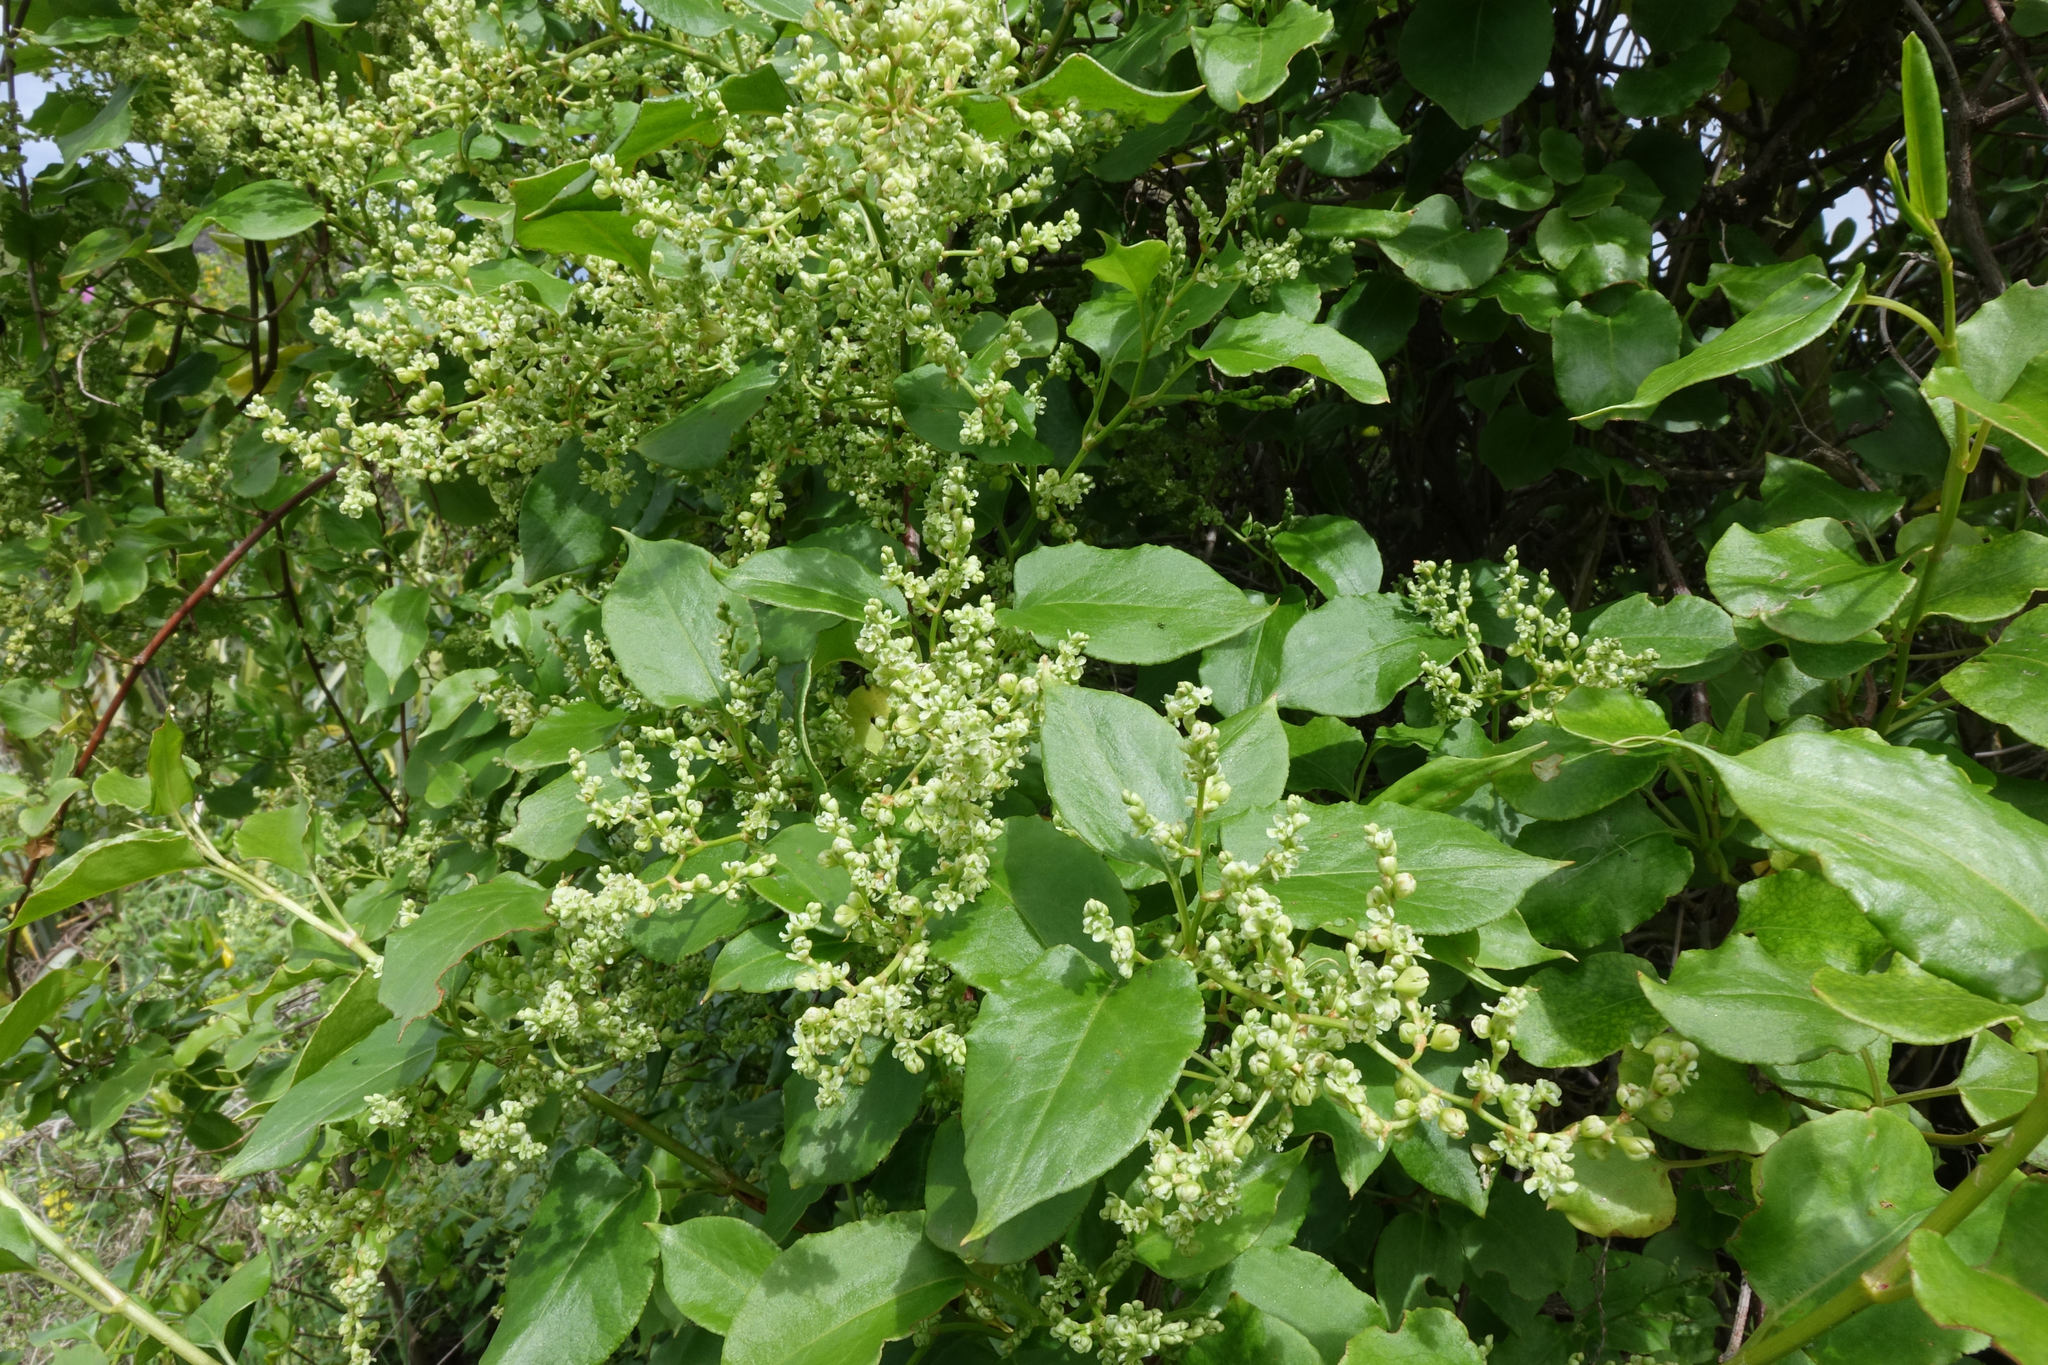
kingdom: Plantae
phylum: Tracheophyta
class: Magnoliopsida
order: Caryophyllales
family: Polygonaceae
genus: Muehlenbeckia
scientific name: Muehlenbeckia australis
